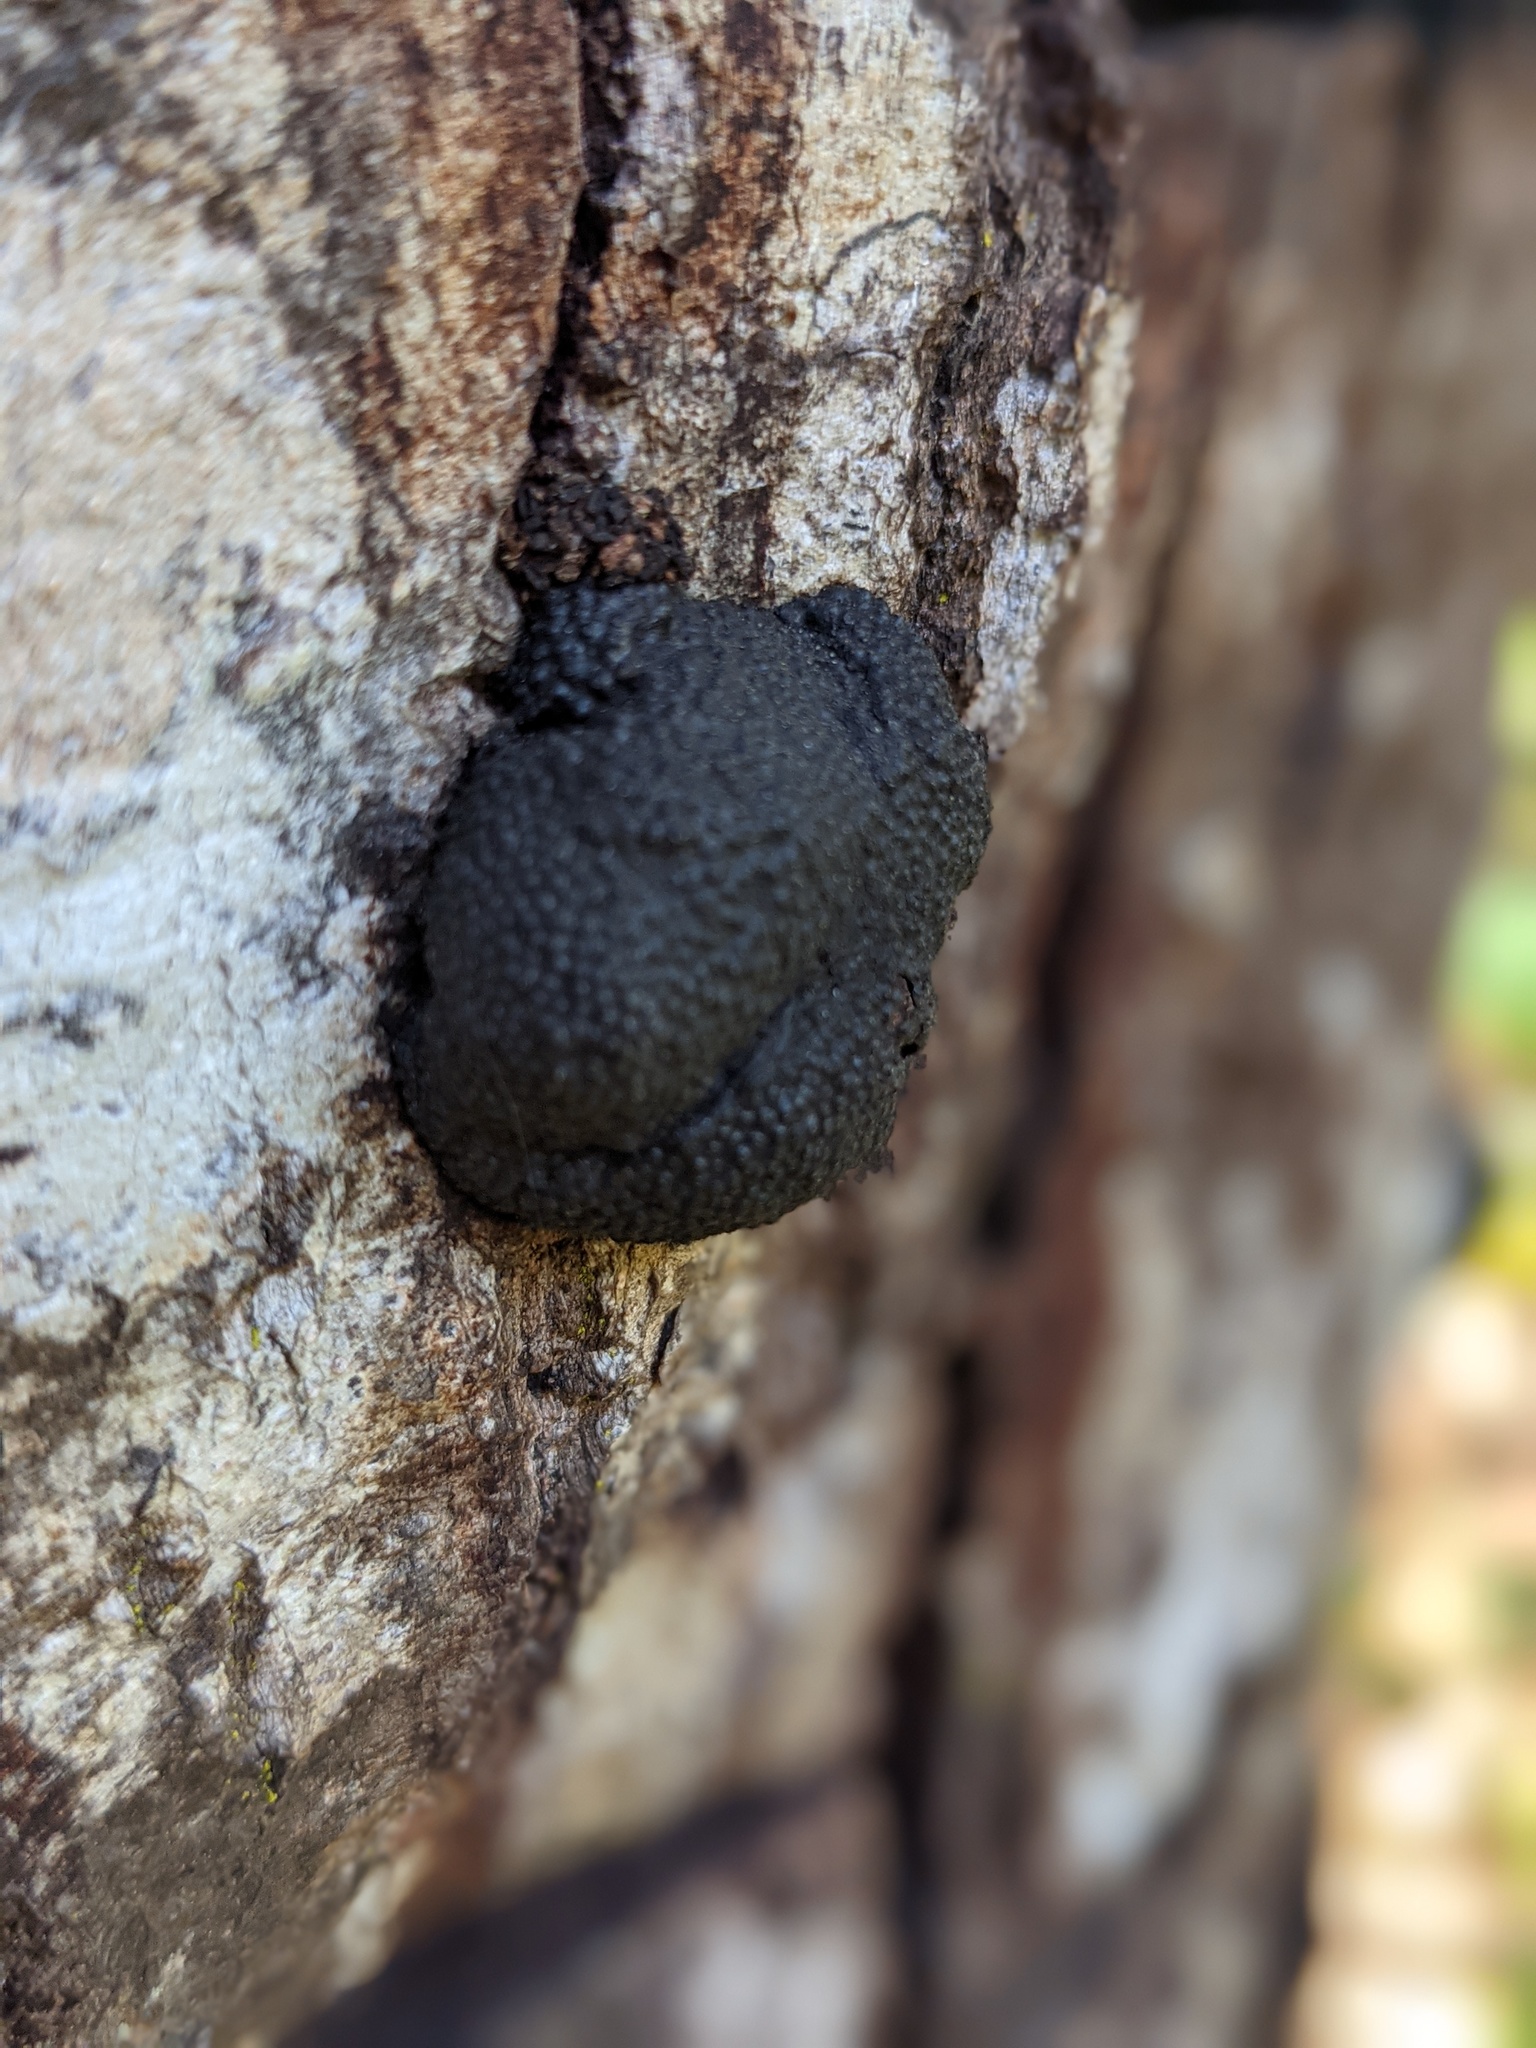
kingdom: Fungi
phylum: Ascomycota
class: Sordariomycetes
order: Xylariales
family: Hypoxylaceae
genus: Annulohypoxylon
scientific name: Annulohypoxylon thouarsianum
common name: Cramp balls
